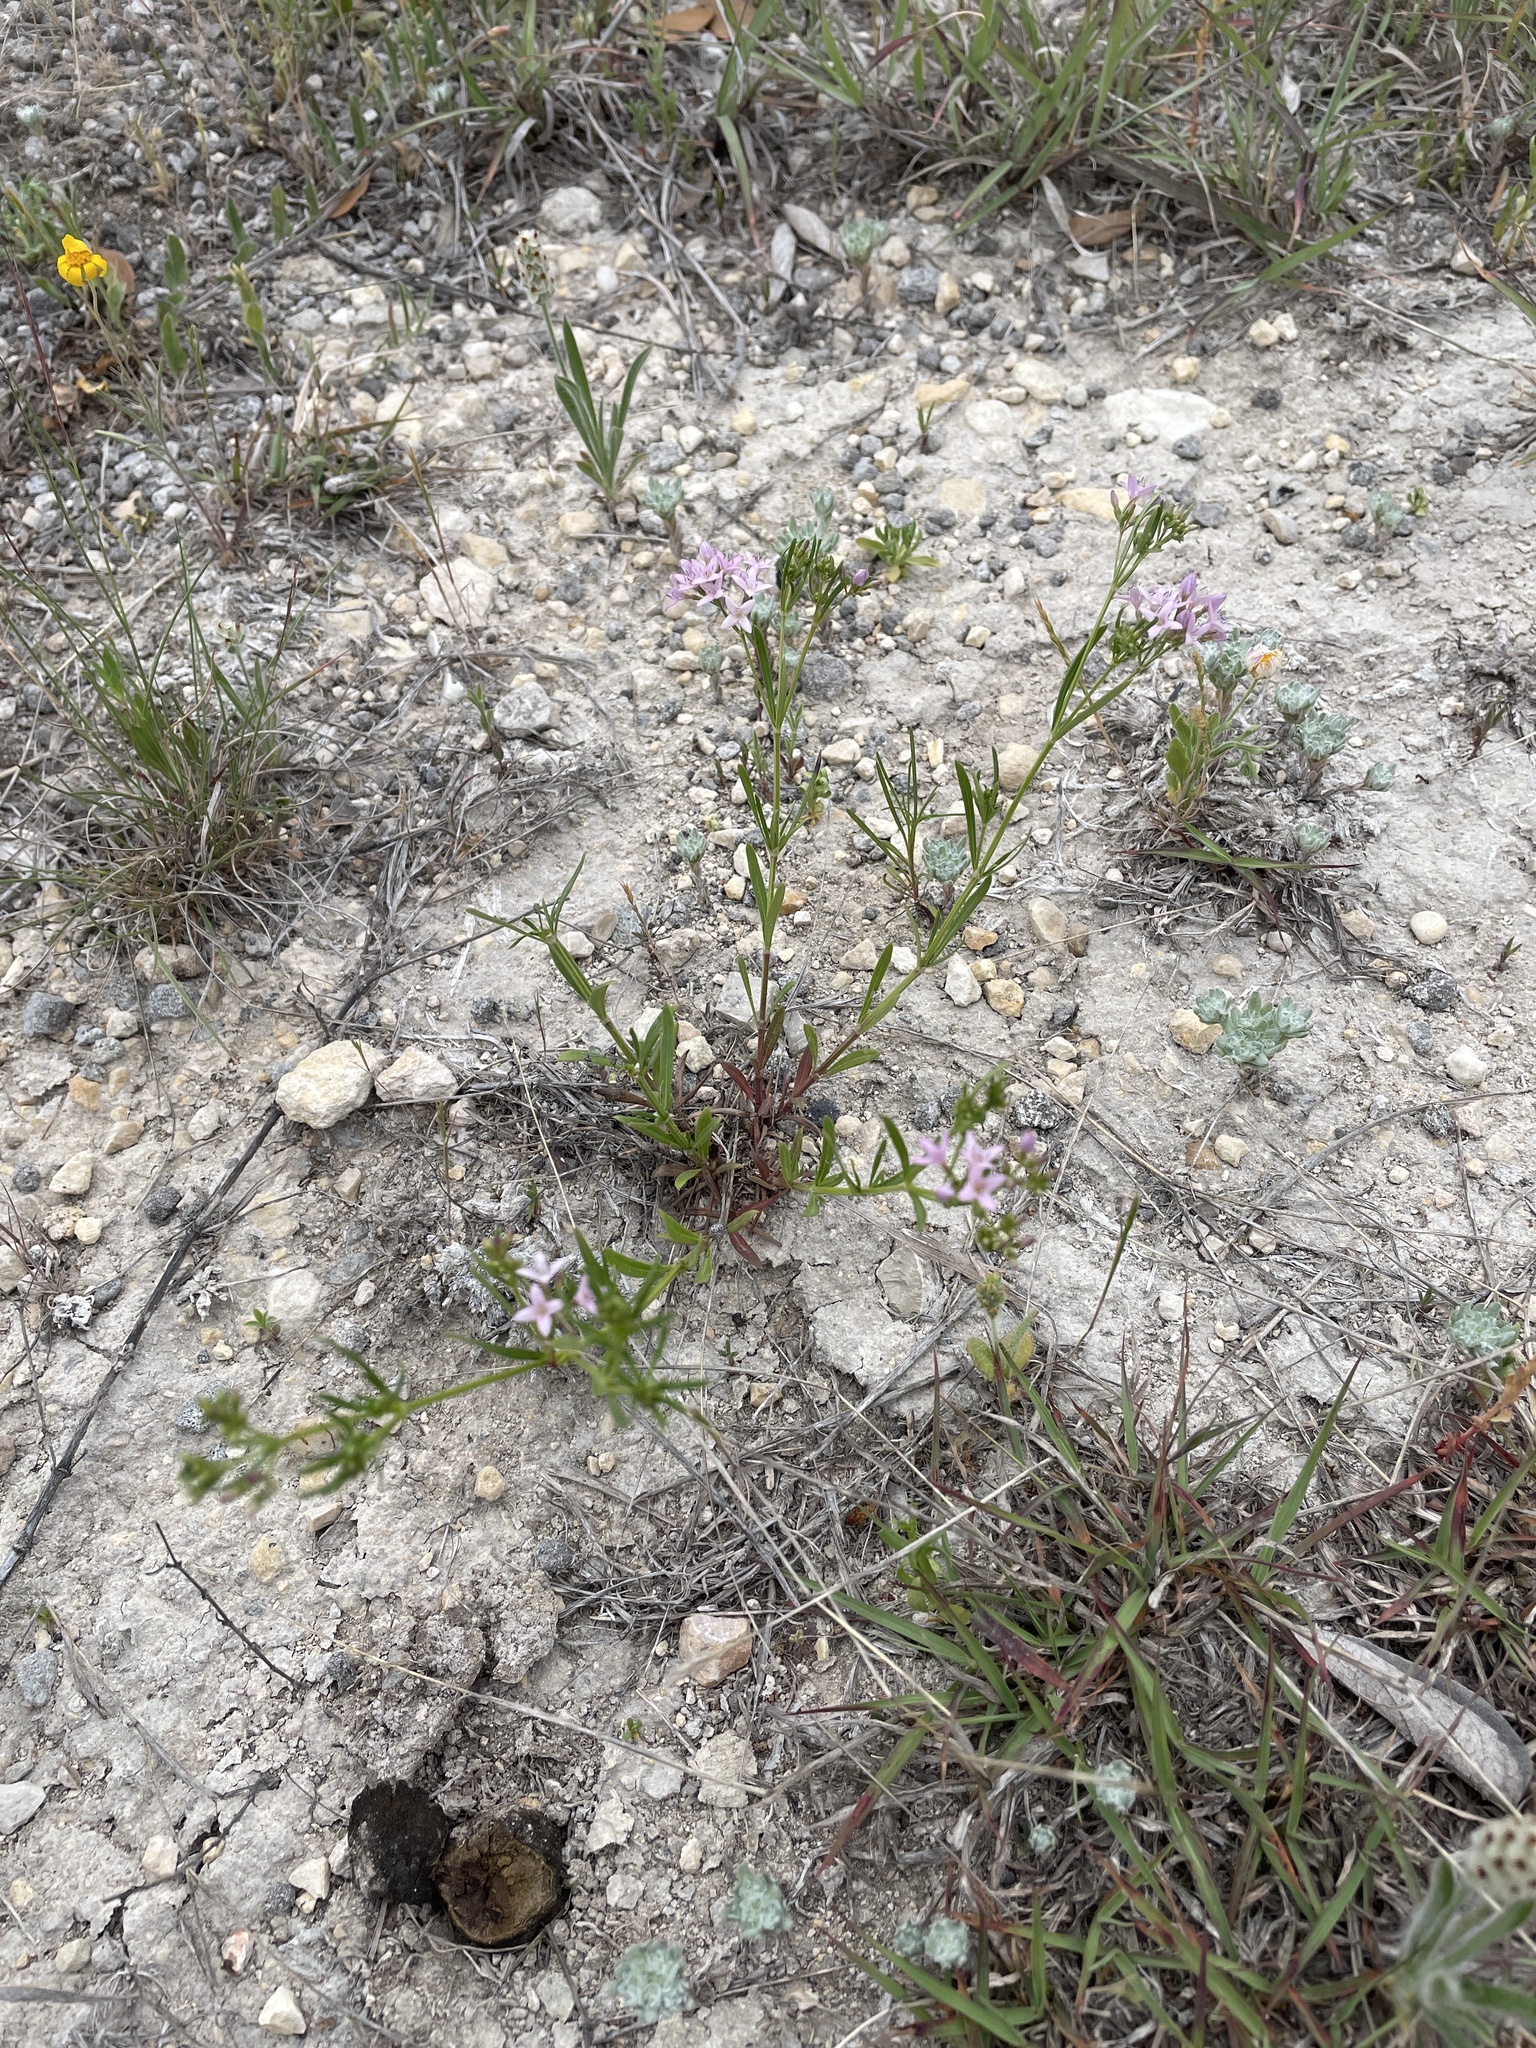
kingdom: Plantae
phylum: Tracheophyta
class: Magnoliopsida
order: Gentianales
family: Rubiaceae
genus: Stenaria
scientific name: Stenaria nigricans
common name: Diamondflowers
